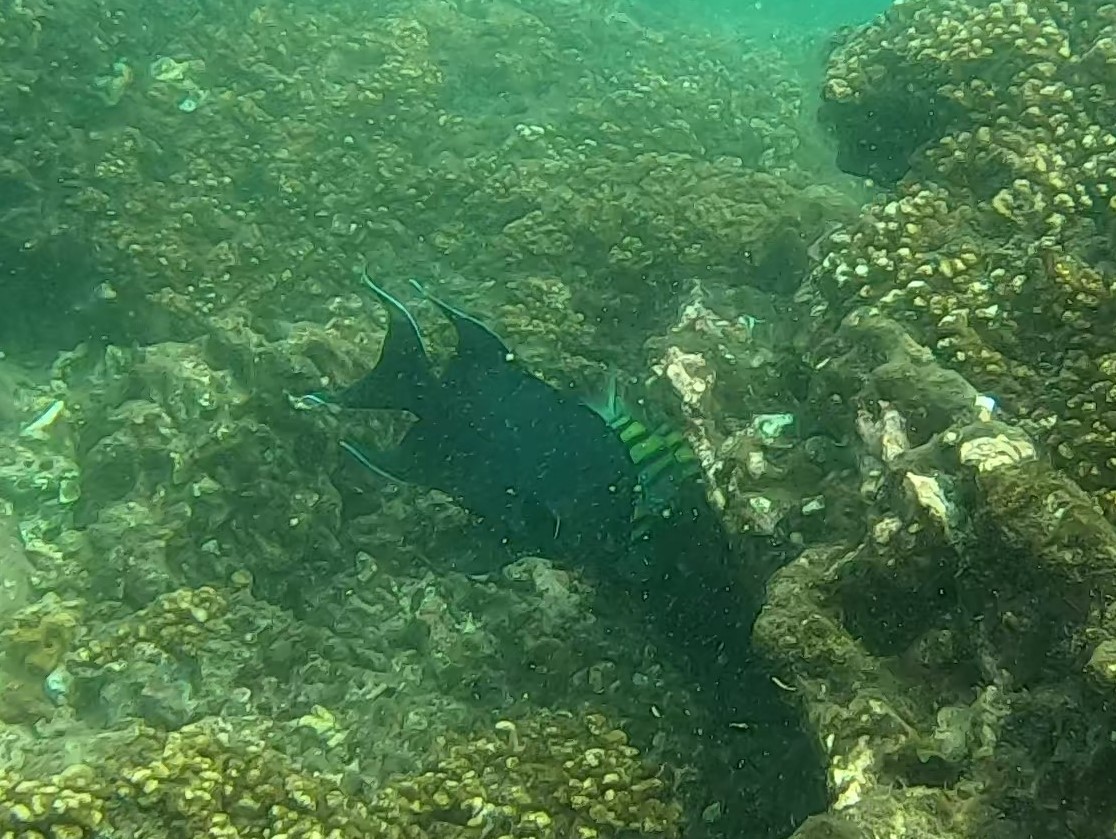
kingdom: Animalia
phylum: Chordata
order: Perciformes
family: Pomacentridae
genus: Microspathodon
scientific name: Microspathodon dorsalis
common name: Giant damselfish
